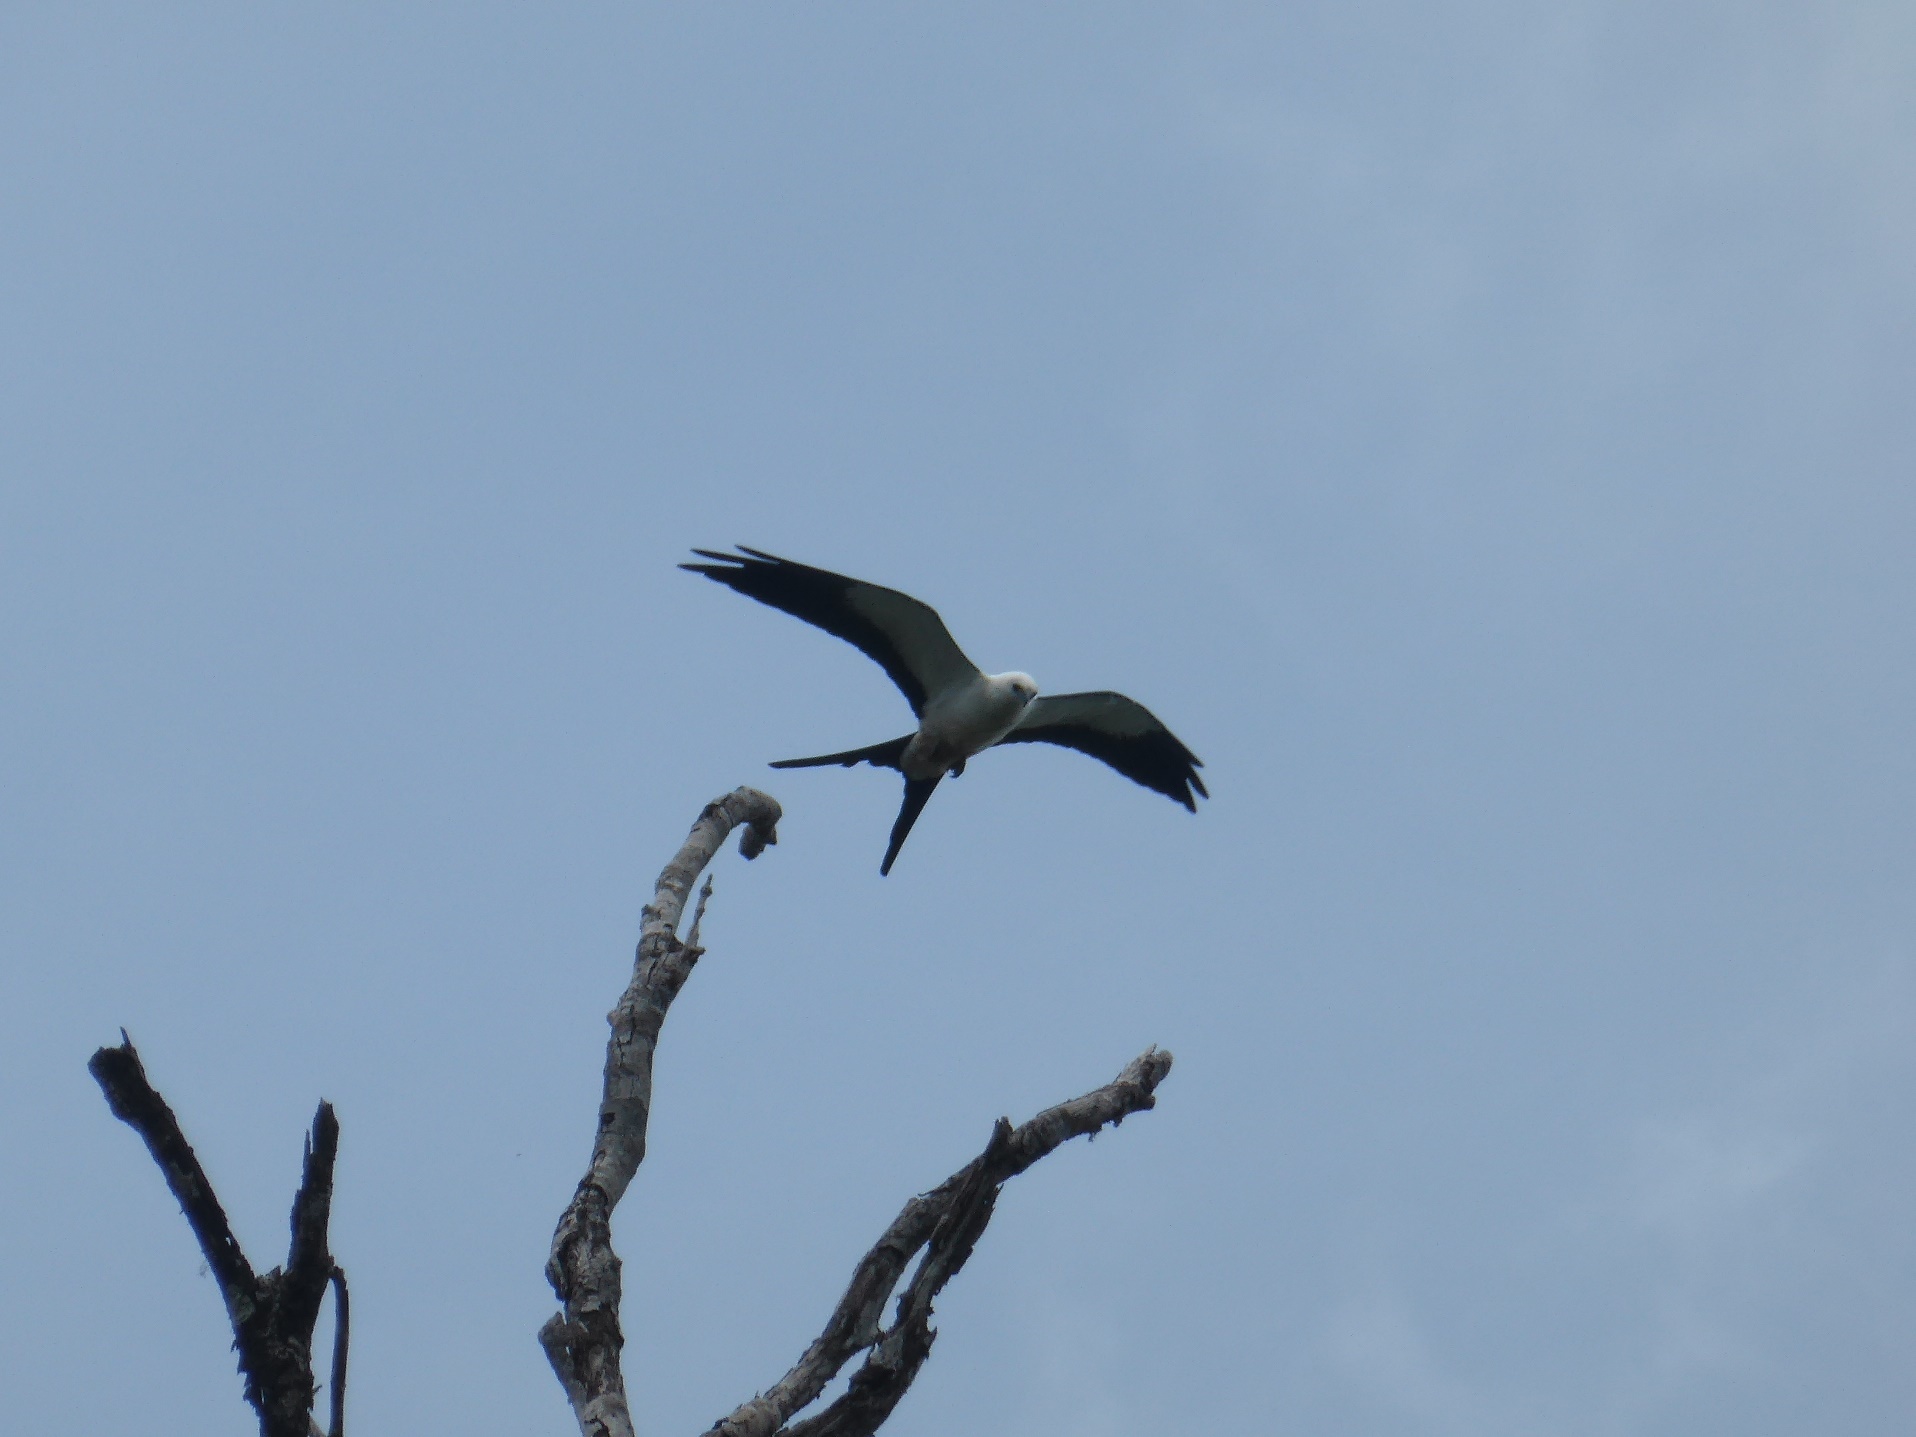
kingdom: Animalia
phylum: Chordata
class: Aves
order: Accipitriformes
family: Accipitridae
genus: Elanoides
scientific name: Elanoides forficatus
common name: Swallow-tailed kite
